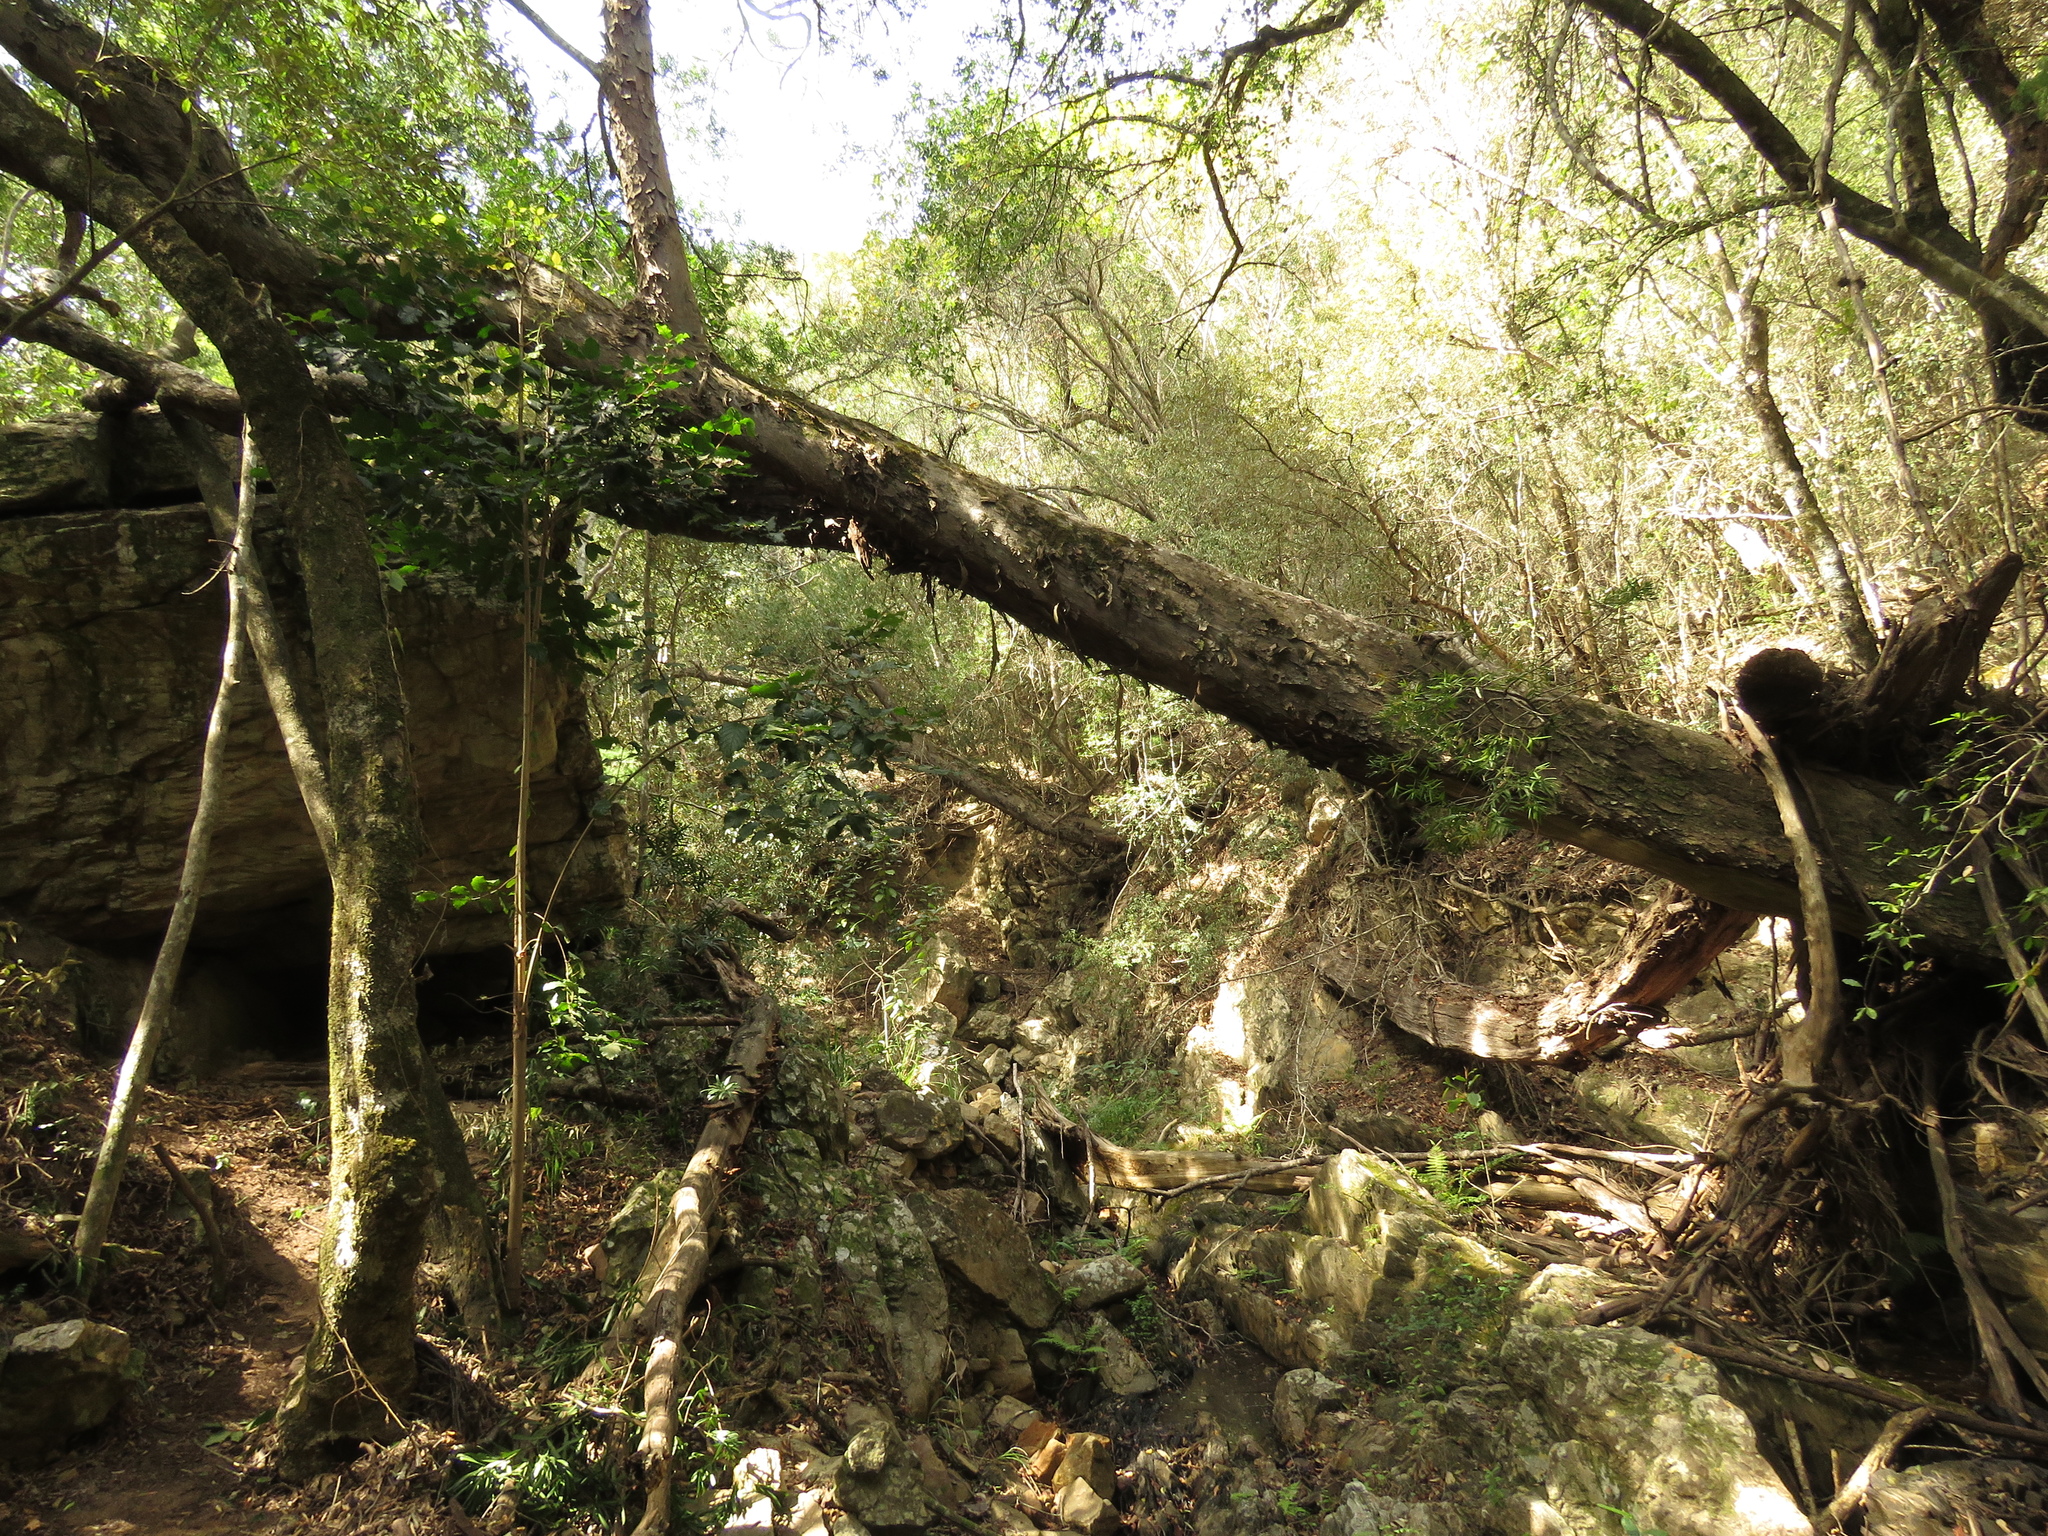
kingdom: Plantae
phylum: Tracheophyta
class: Pinopsida
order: Pinales
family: Podocarpaceae
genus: Afrocarpus
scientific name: Afrocarpus falcatus
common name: Bastard yellowwood
